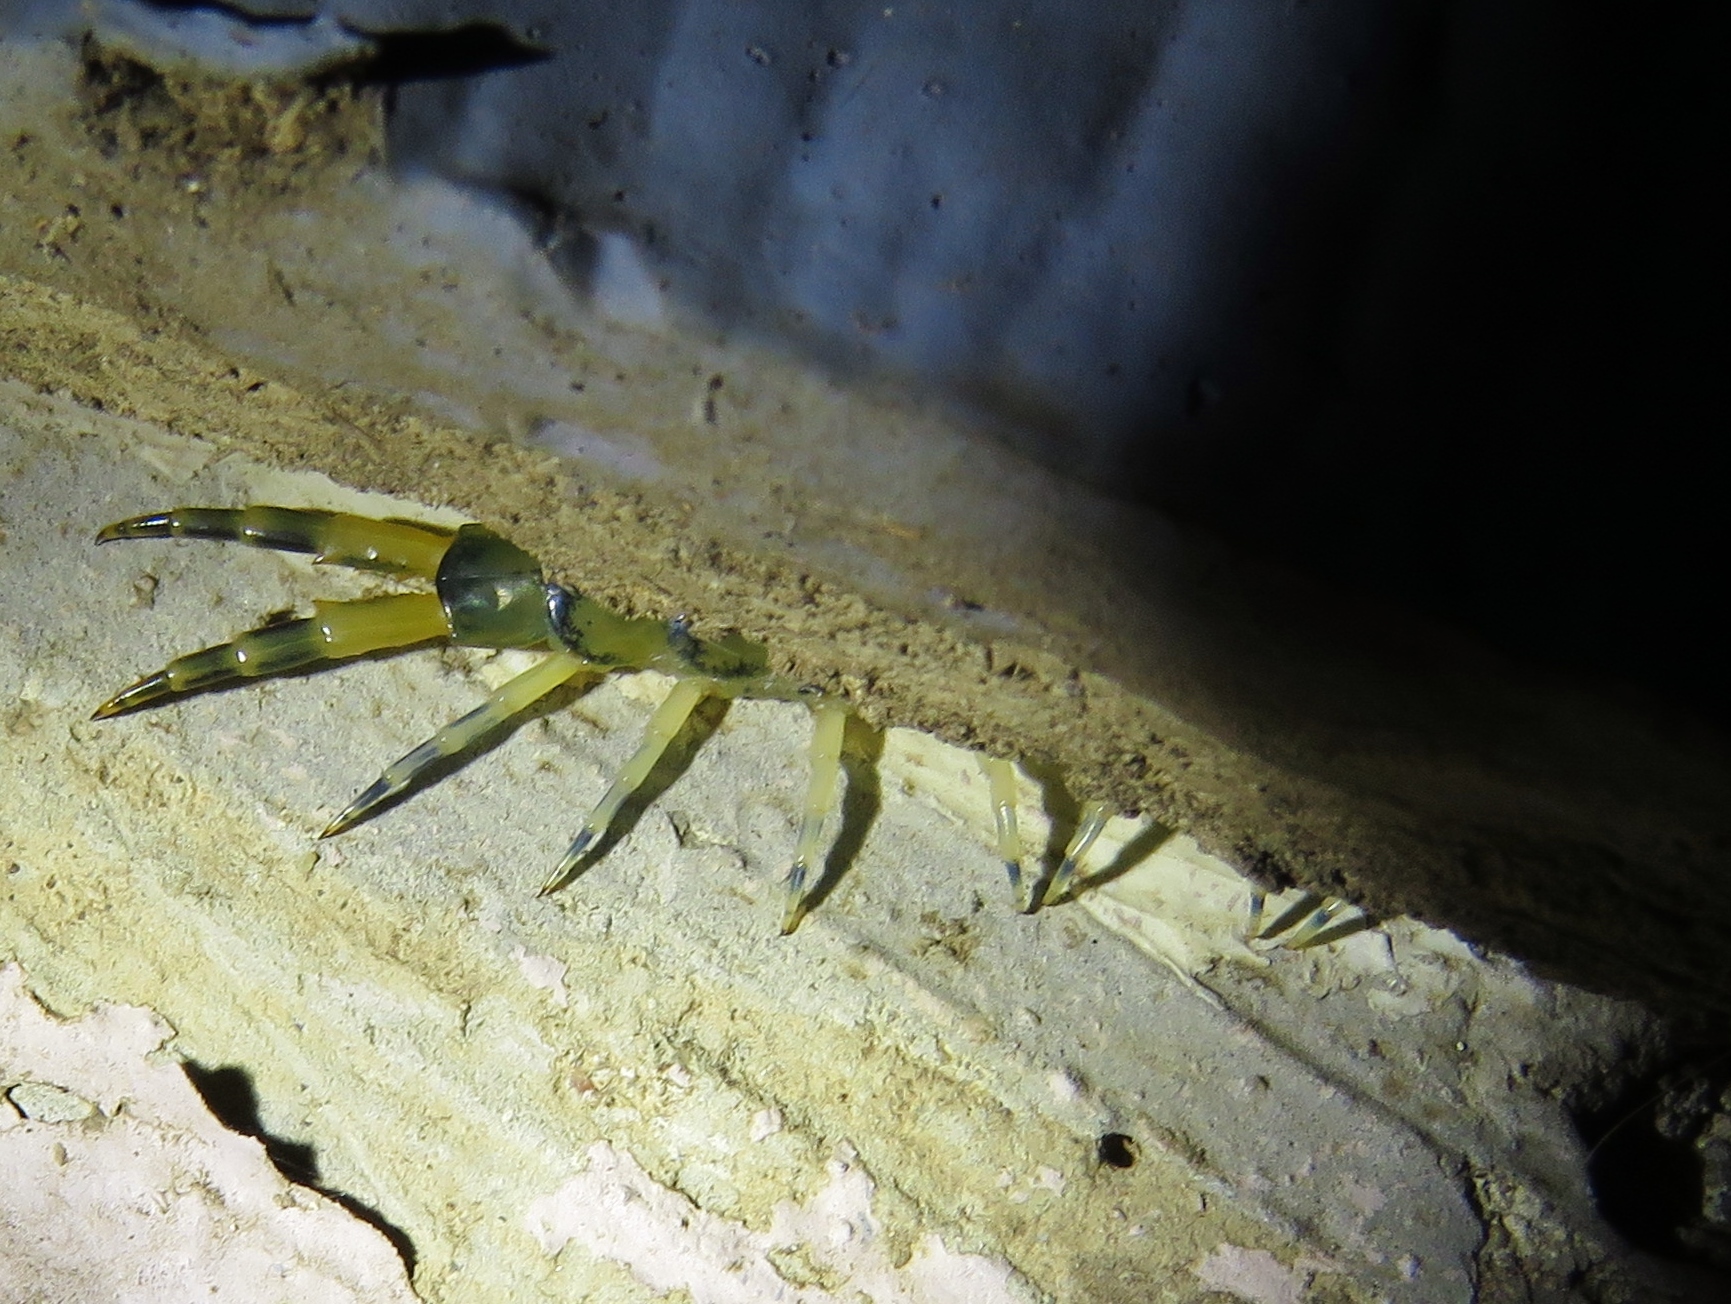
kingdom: Animalia
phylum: Arthropoda
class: Chilopoda
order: Scolopendromorpha
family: Scolopendridae
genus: Hemiscolopendra
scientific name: Hemiscolopendra marginata
